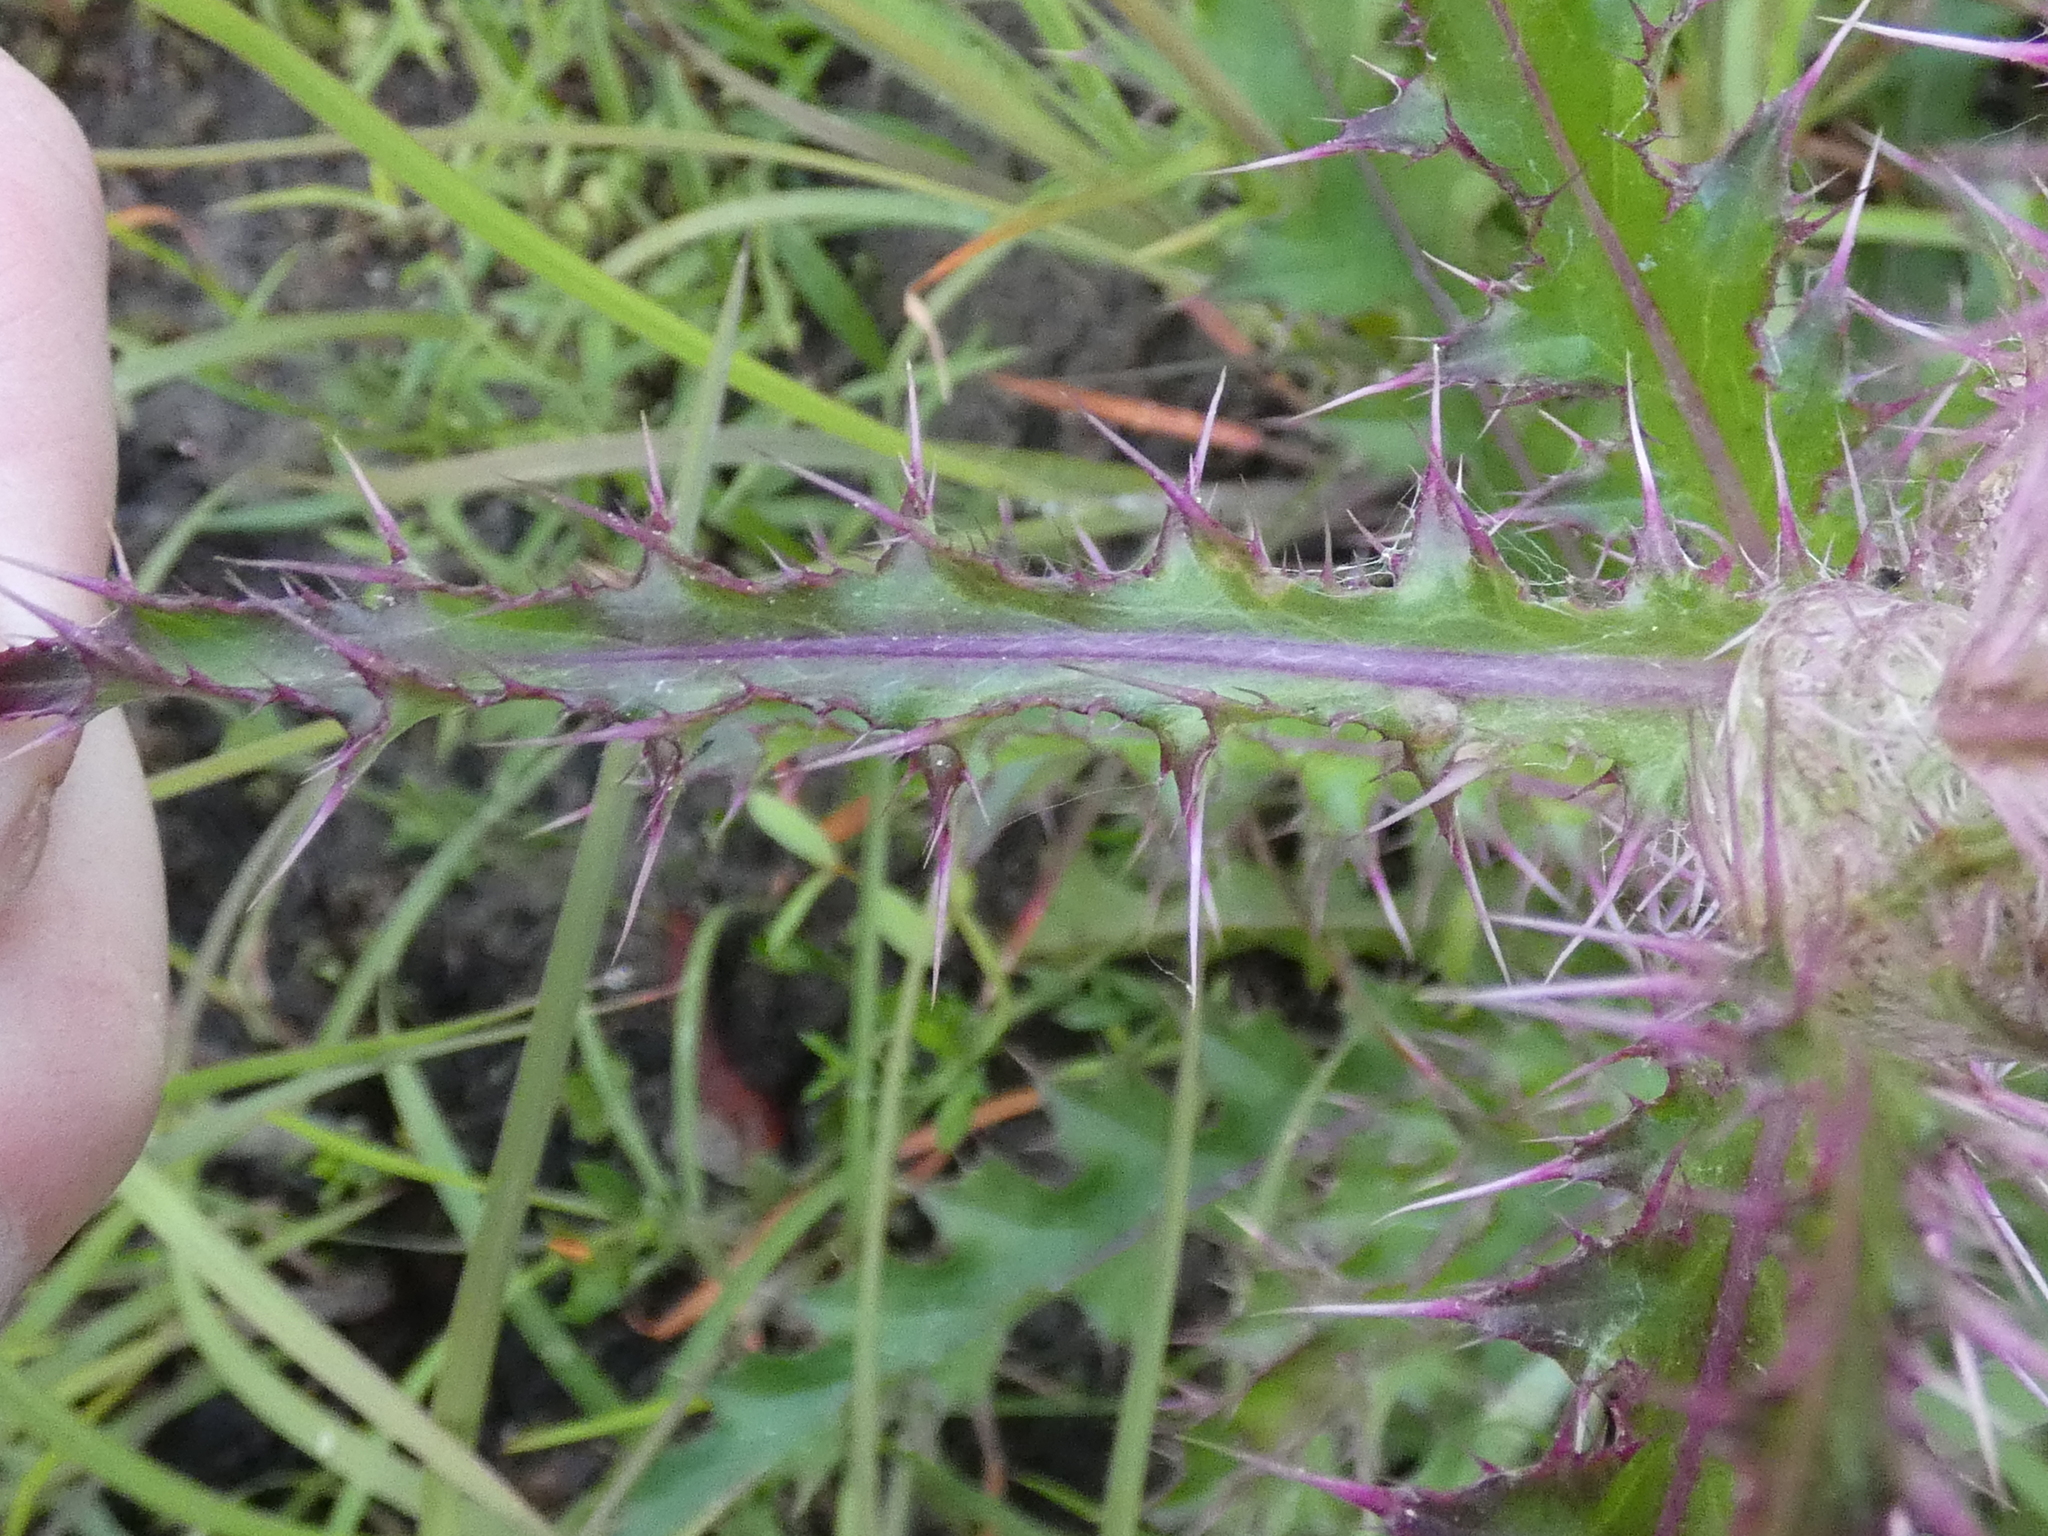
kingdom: Plantae
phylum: Tracheophyta
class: Magnoliopsida
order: Asterales
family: Asteraceae
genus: Cirsium
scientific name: Cirsium horridulum
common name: Bristly thistle
